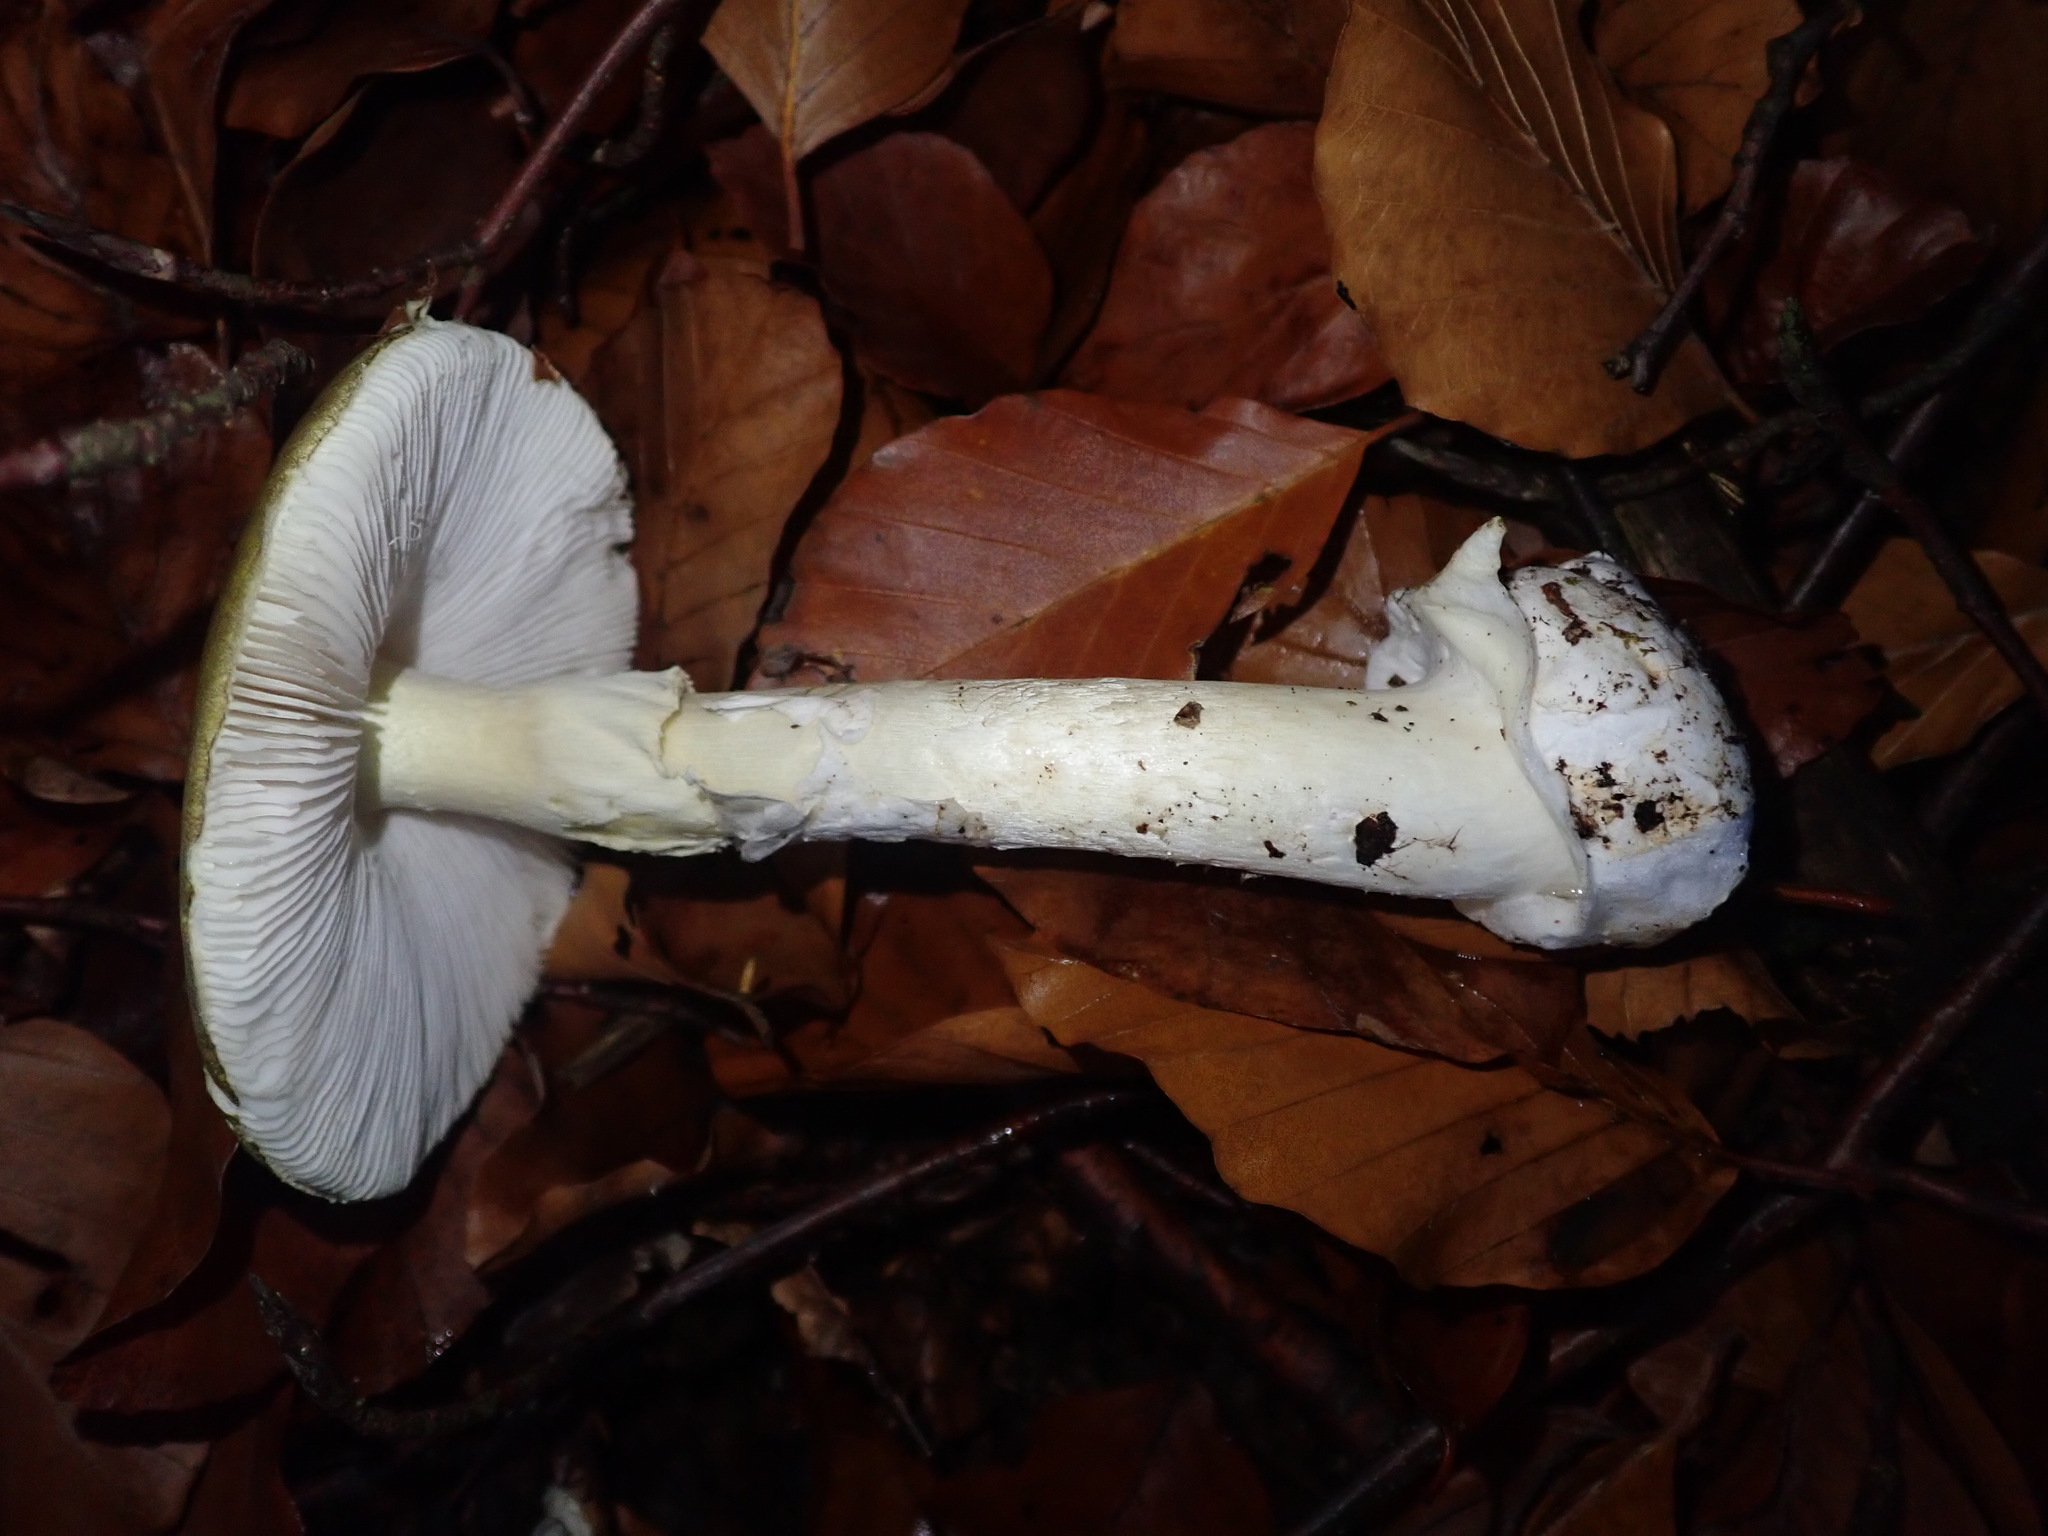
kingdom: Fungi
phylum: Basidiomycota
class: Agaricomycetes
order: Agaricales
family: Amanitaceae
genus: Amanita
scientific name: Amanita phalloides
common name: Death cap
